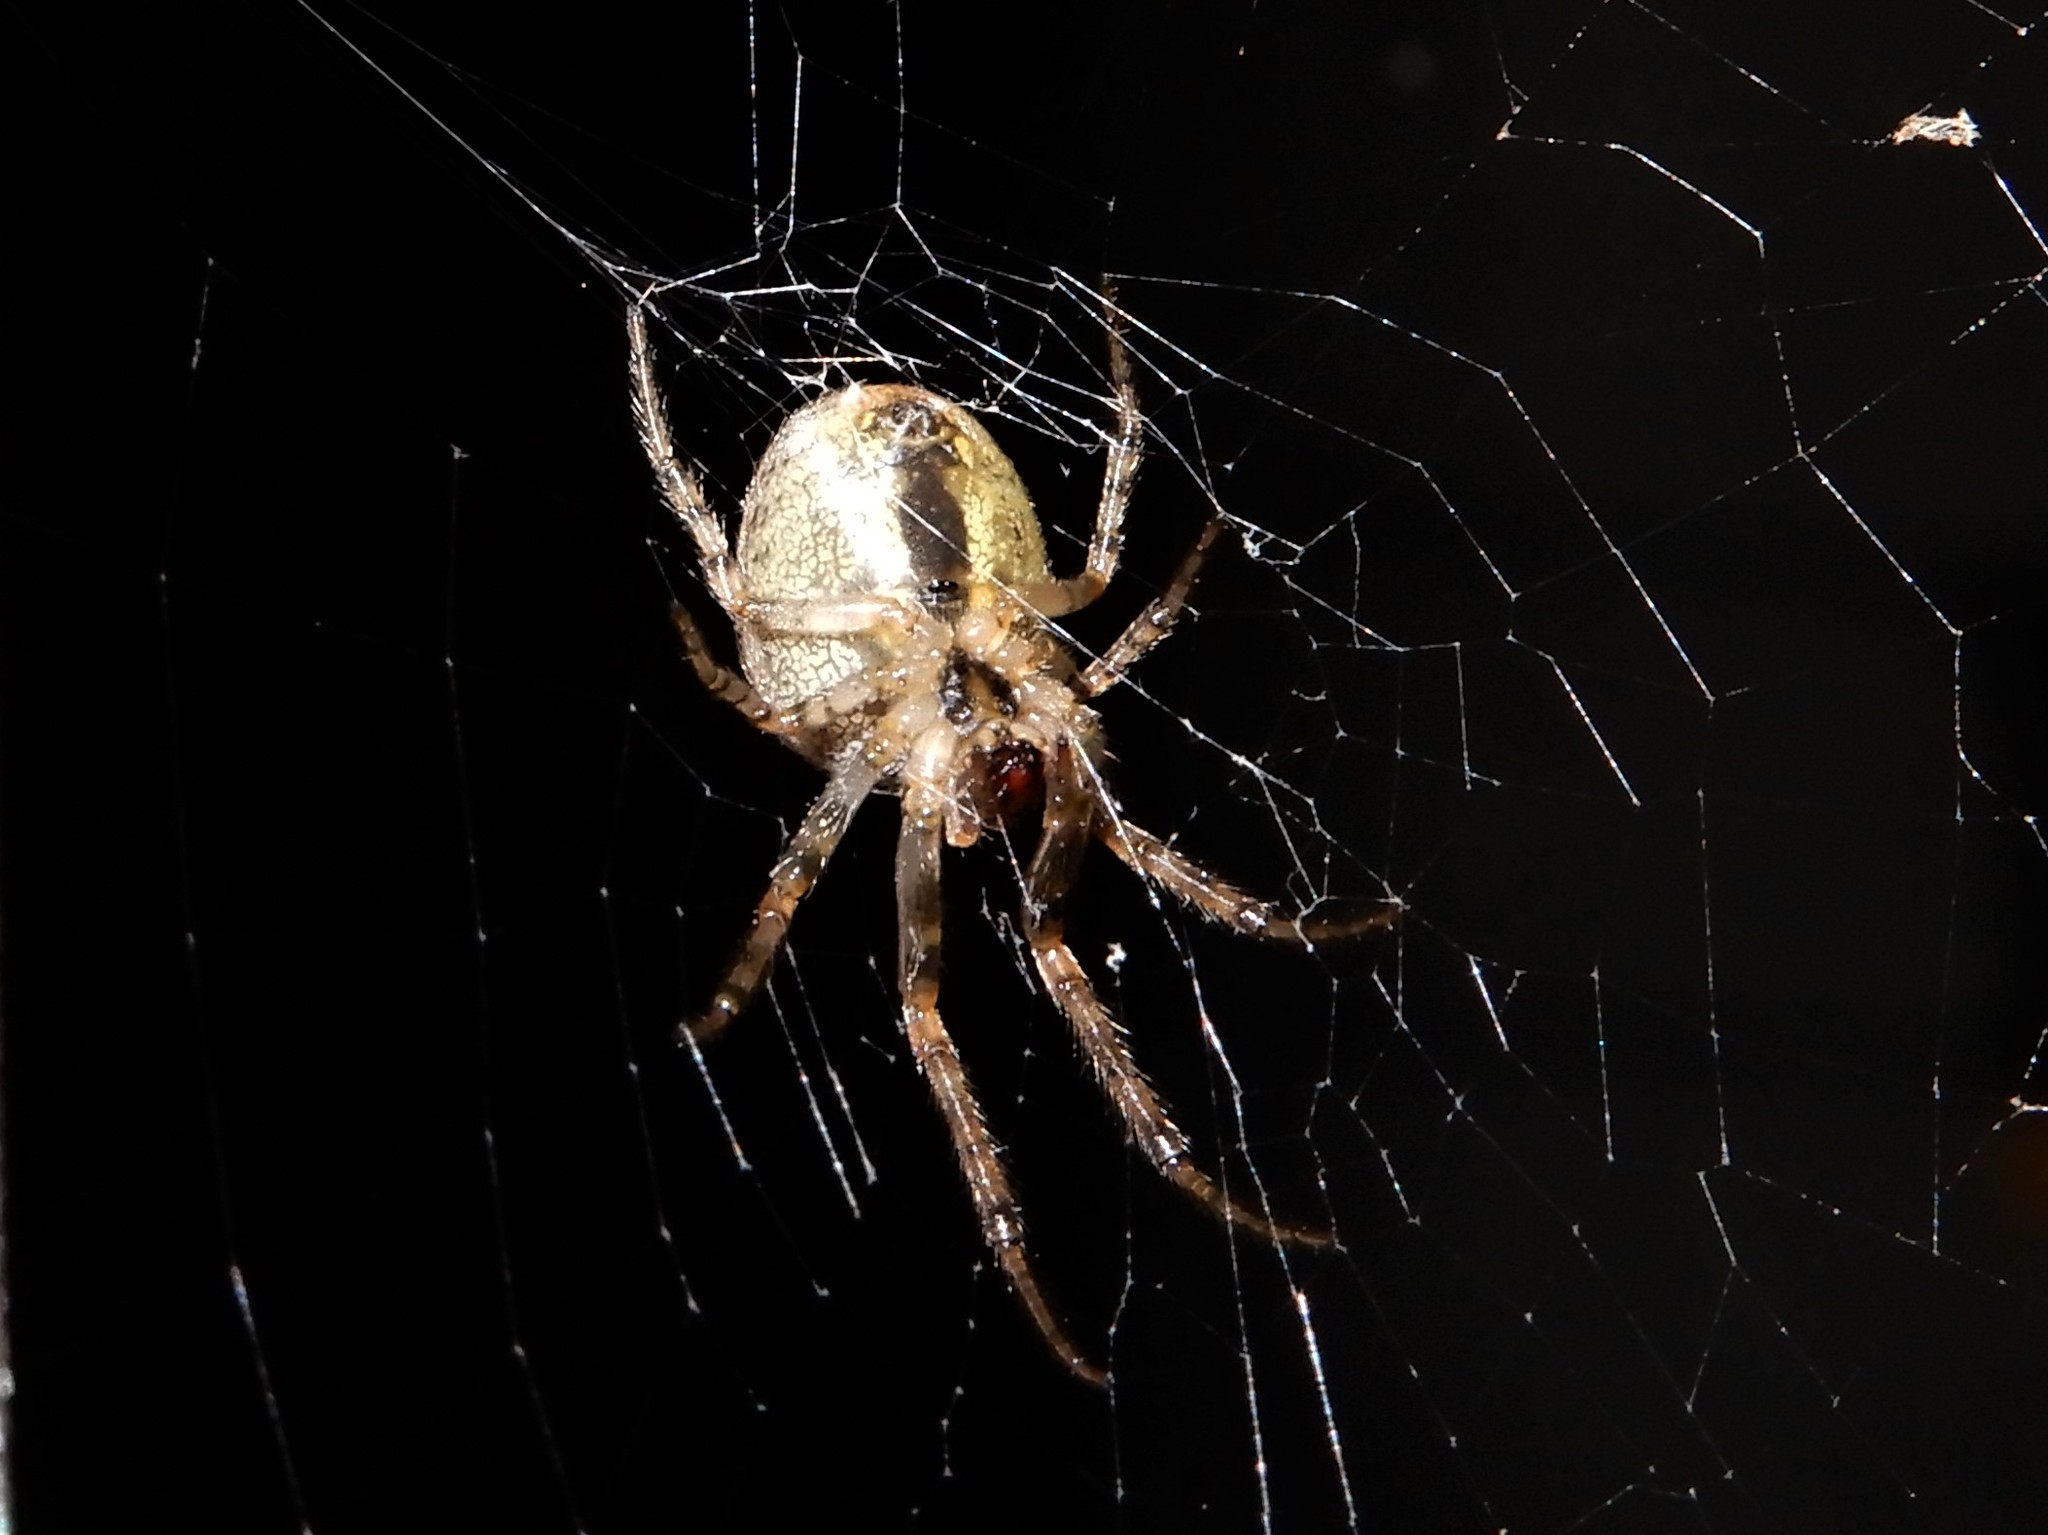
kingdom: Animalia
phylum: Arthropoda
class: Arachnida
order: Araneae
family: Araneidae
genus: Zygiella
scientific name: Zygiella x-notata
